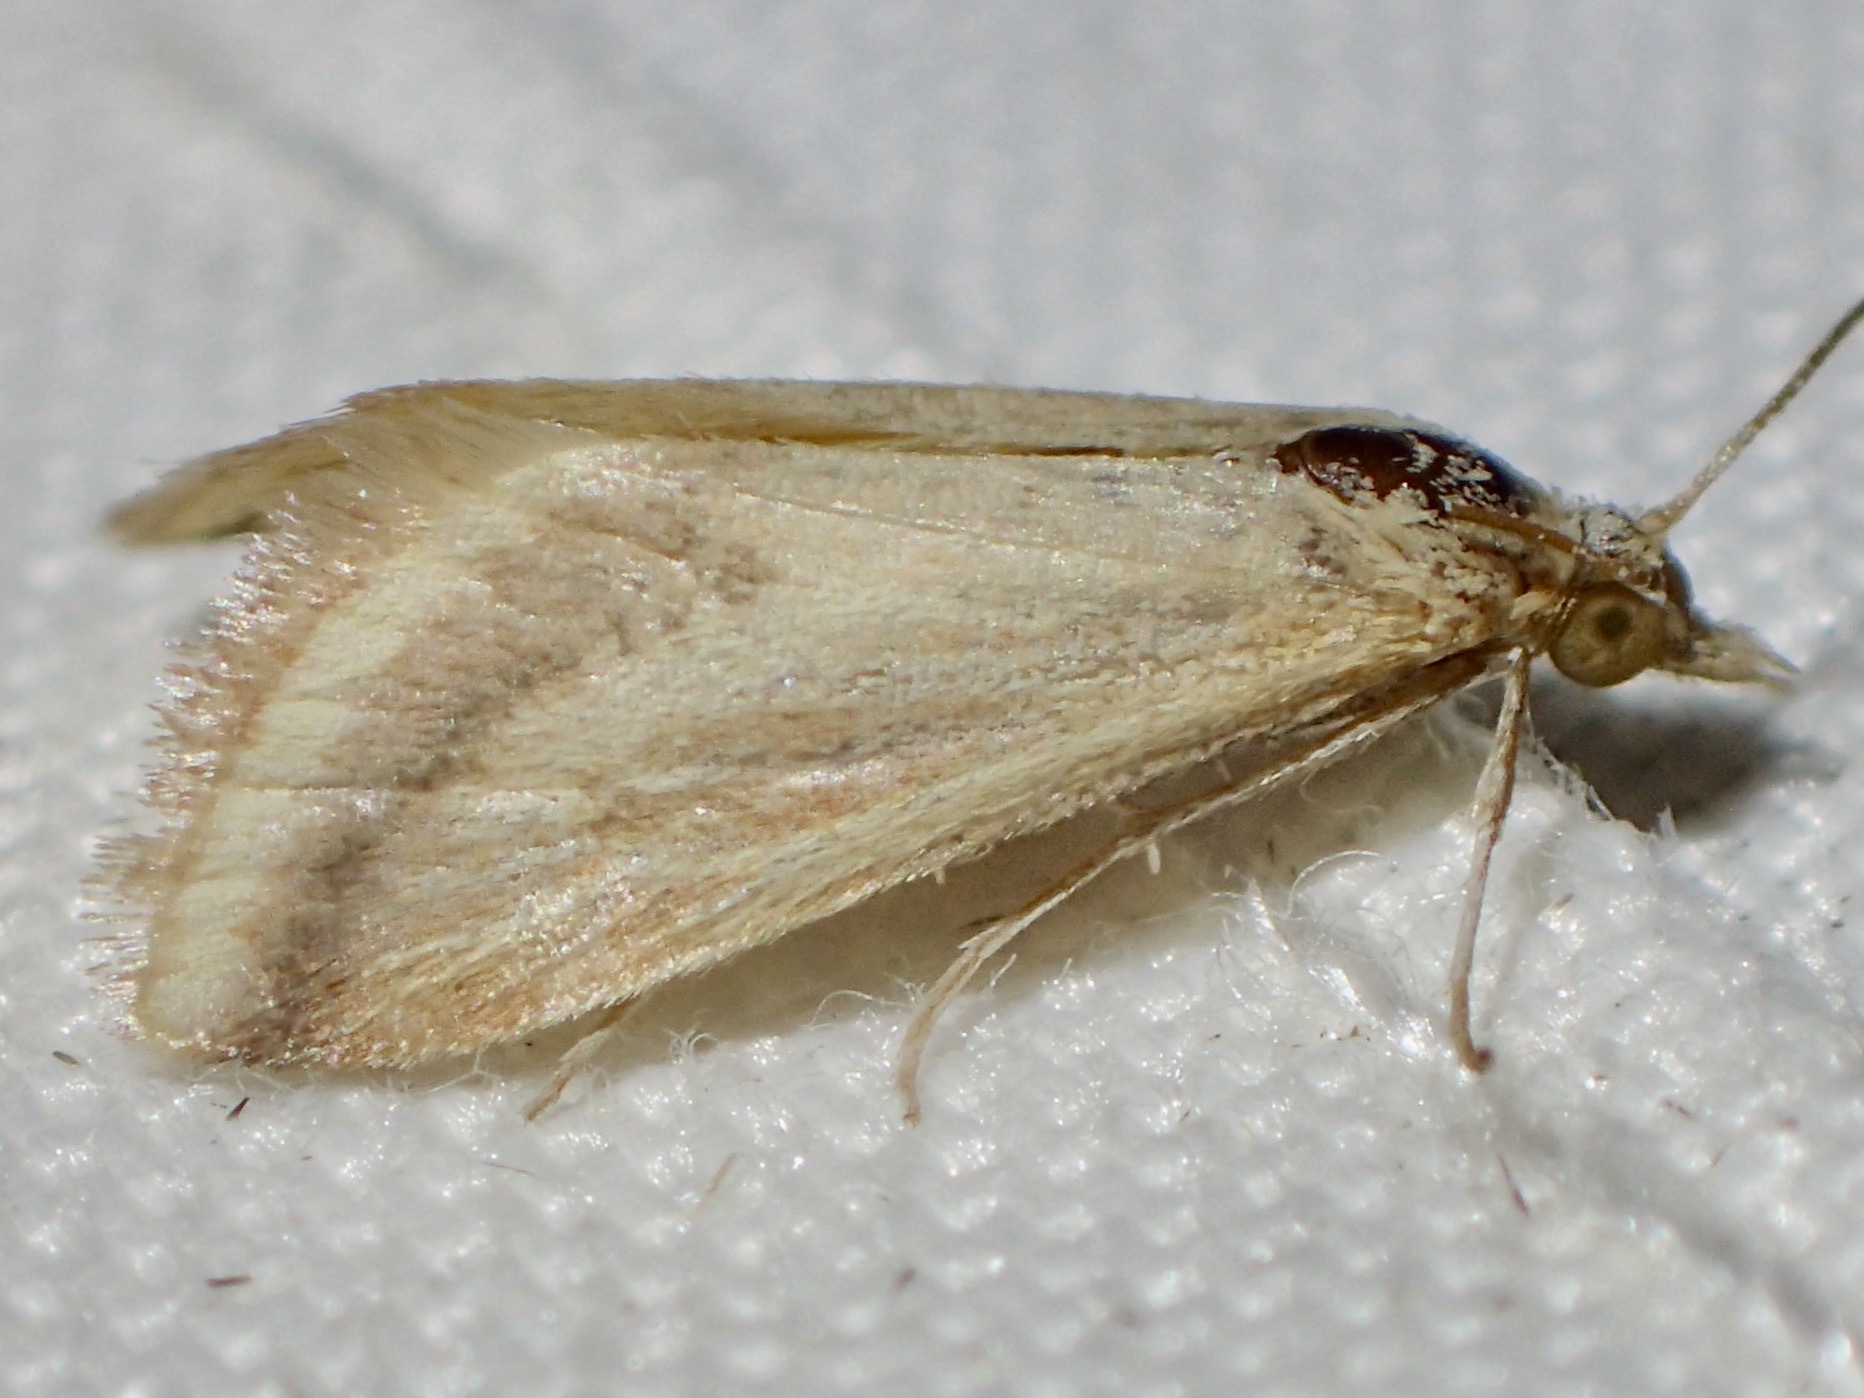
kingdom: Animalia
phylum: Arthropoda
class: Insecta
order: Lepidoptera
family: Crambidae
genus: Microtheoris
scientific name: Microtheoris ophionalis
